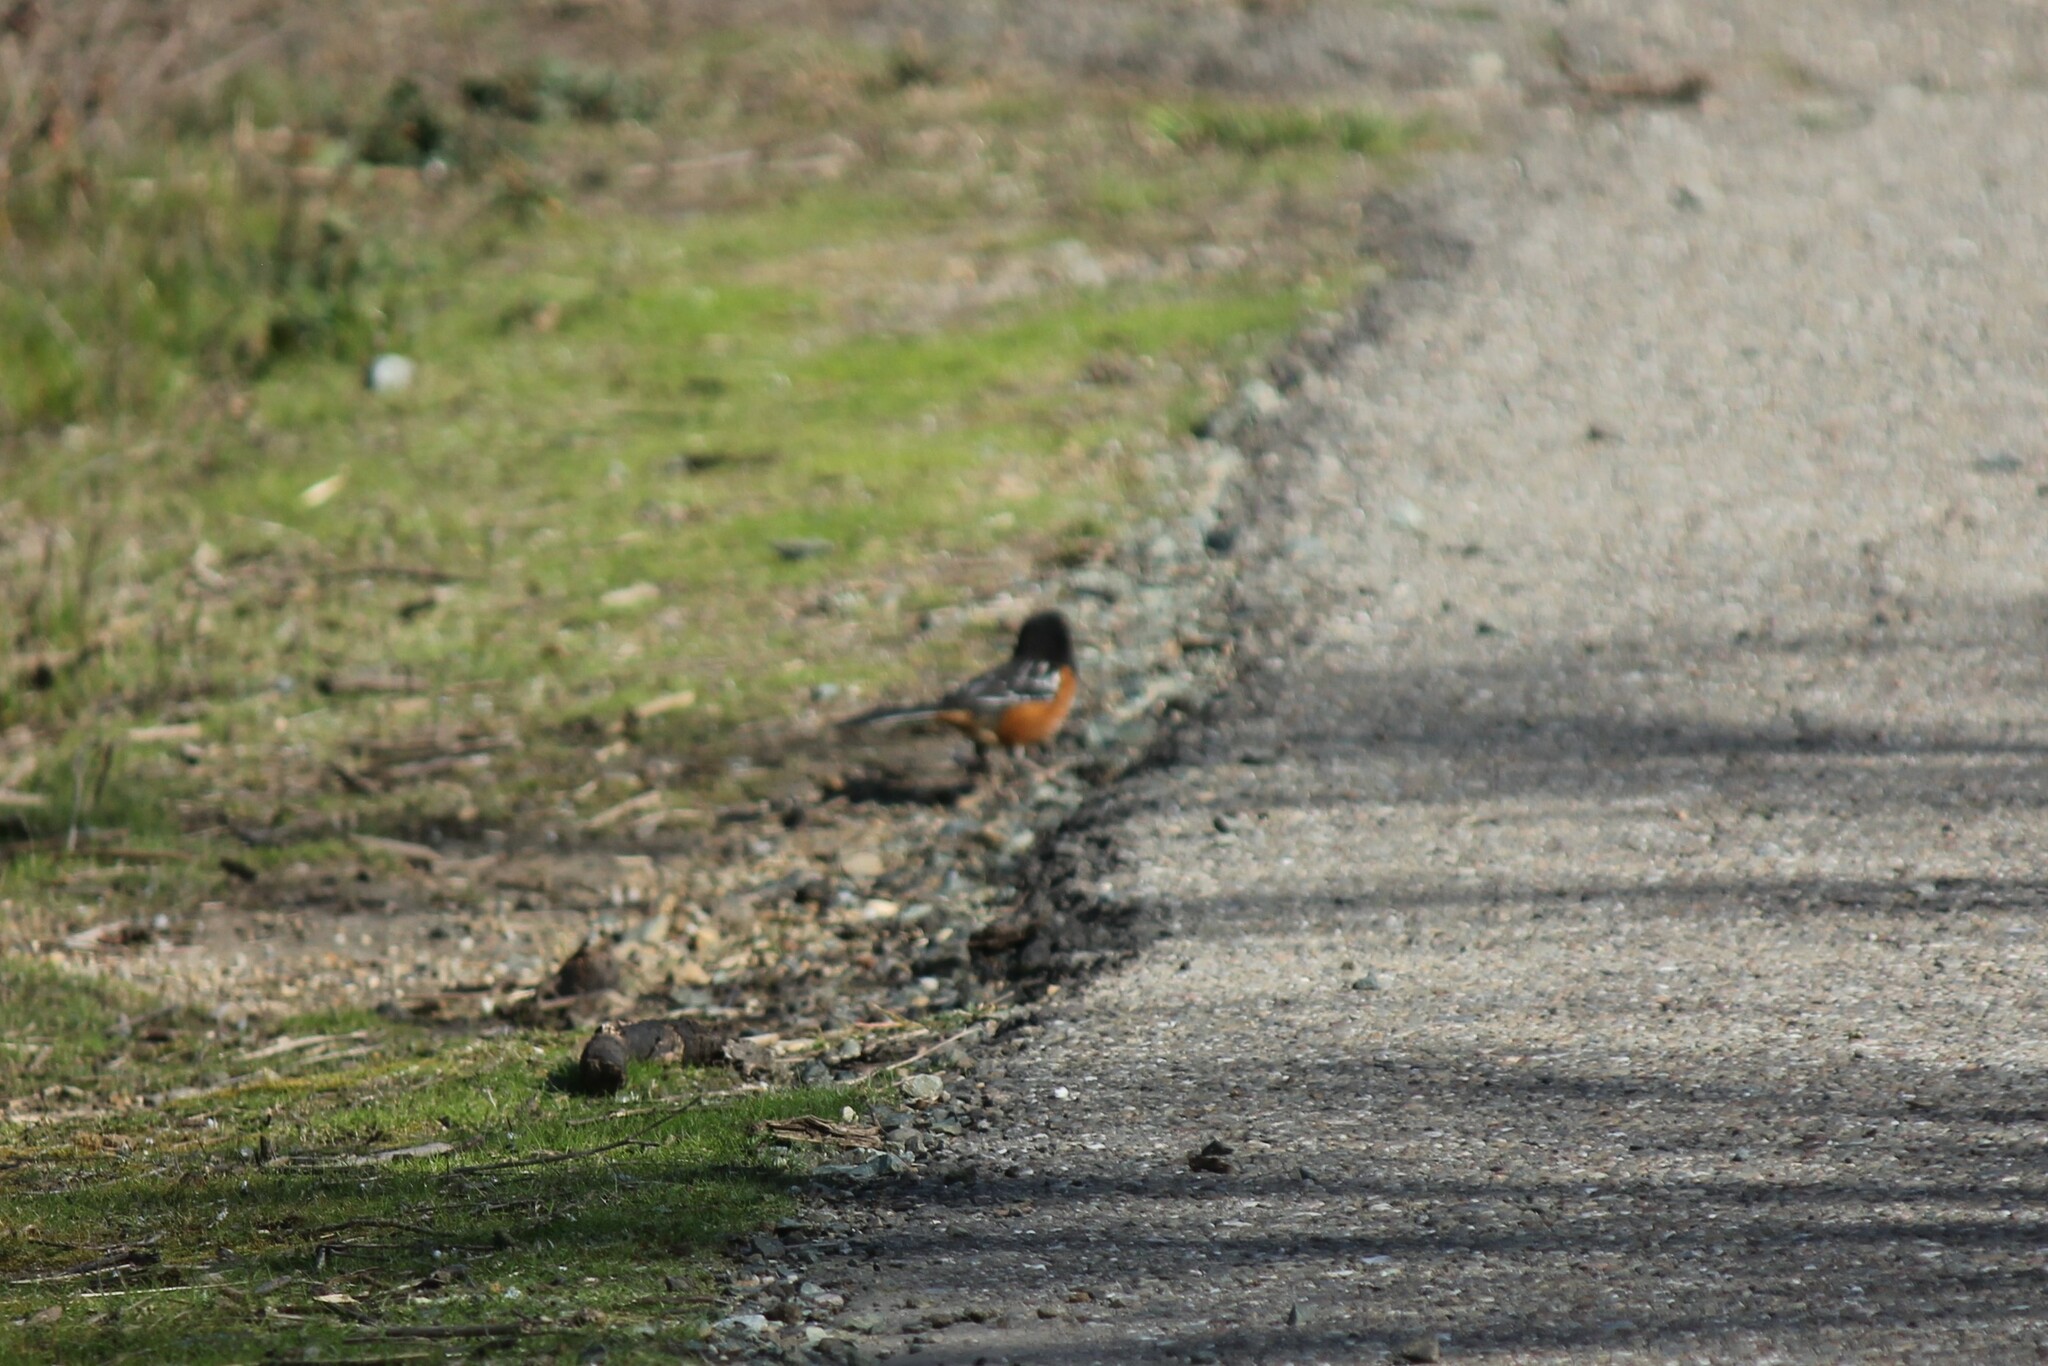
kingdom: Animalia
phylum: Chordata
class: Aves
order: Passeriformes
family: Passerellidae
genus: Pipilo
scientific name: Pipilo maculatus
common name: Spotted towhee
